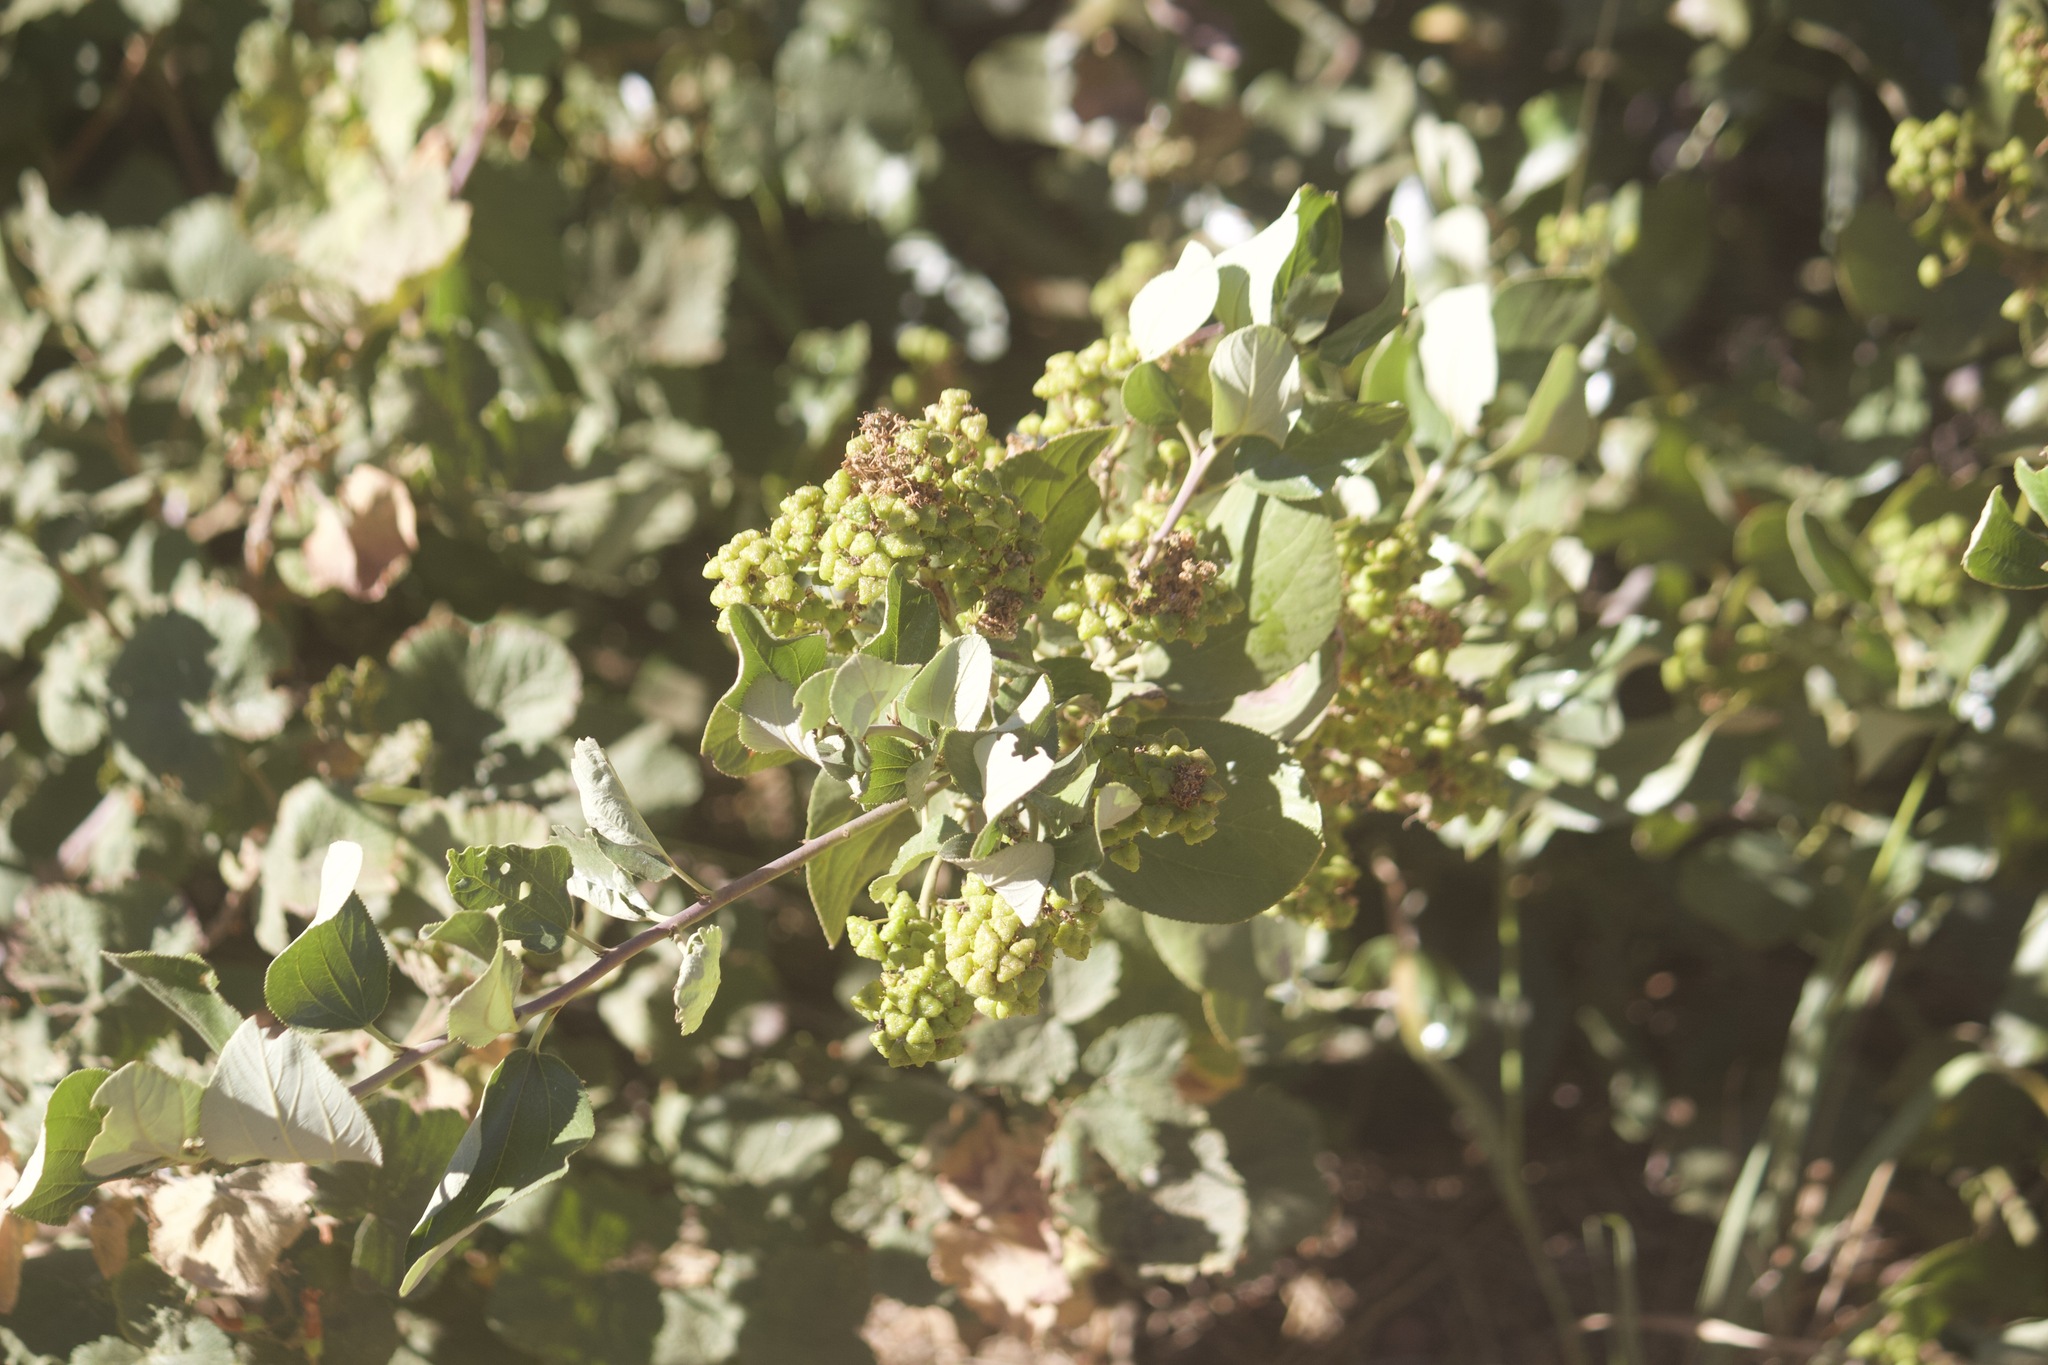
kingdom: Plantae
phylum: Tracheophyta
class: Magnoliopsida
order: Rosales
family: Rhamnaceae
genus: Ceanothus
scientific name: Ceanothus velutinus
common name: Snowbrush
